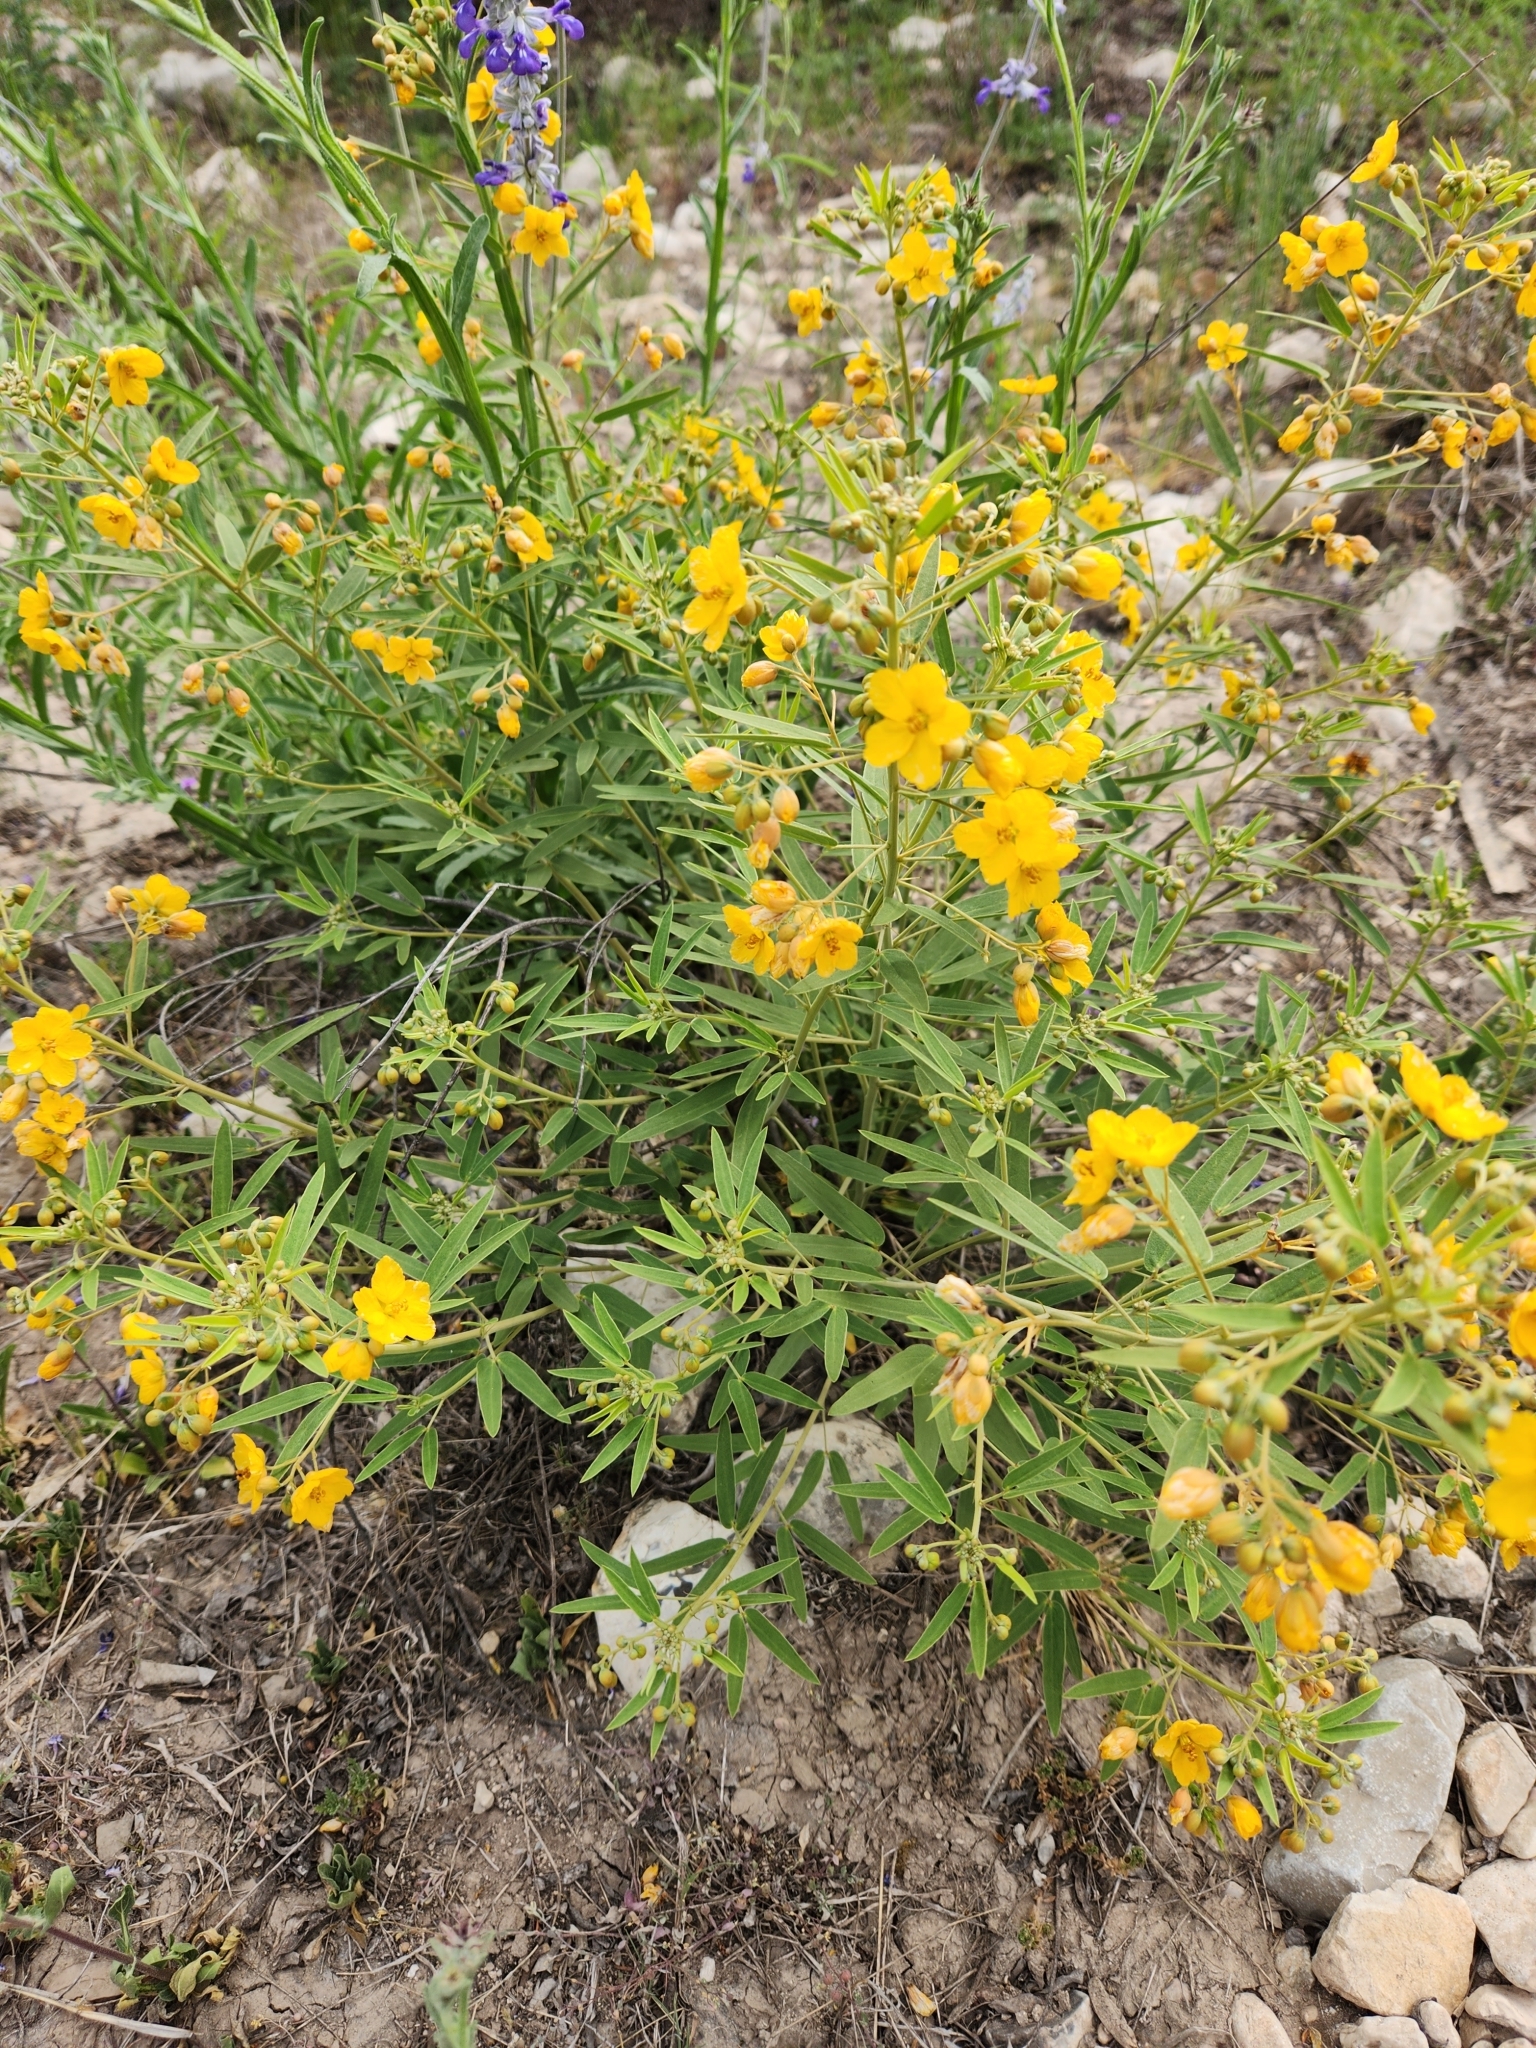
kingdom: Plantae
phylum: Tracheophyta
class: Magnoliopsida
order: Fabales
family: Fabaceae
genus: Senna
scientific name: Senna roemeriana
